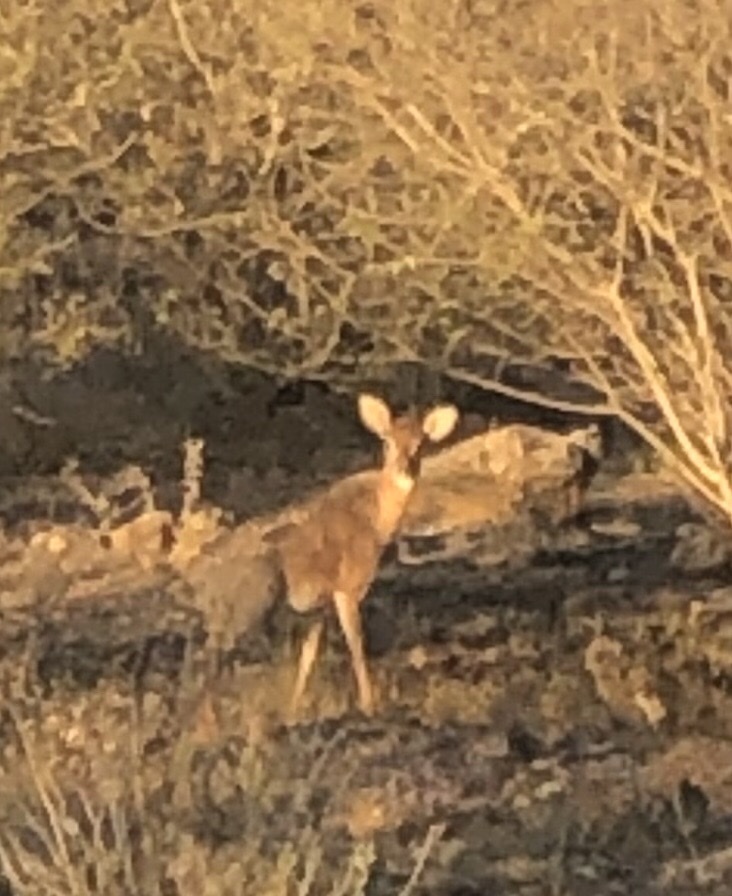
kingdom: Animalia
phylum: Chordata
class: Mammalia
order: Artiodactyla
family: Bovidae
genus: Madoqua
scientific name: Madoqua kirkii
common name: Kirk's dik-dik
